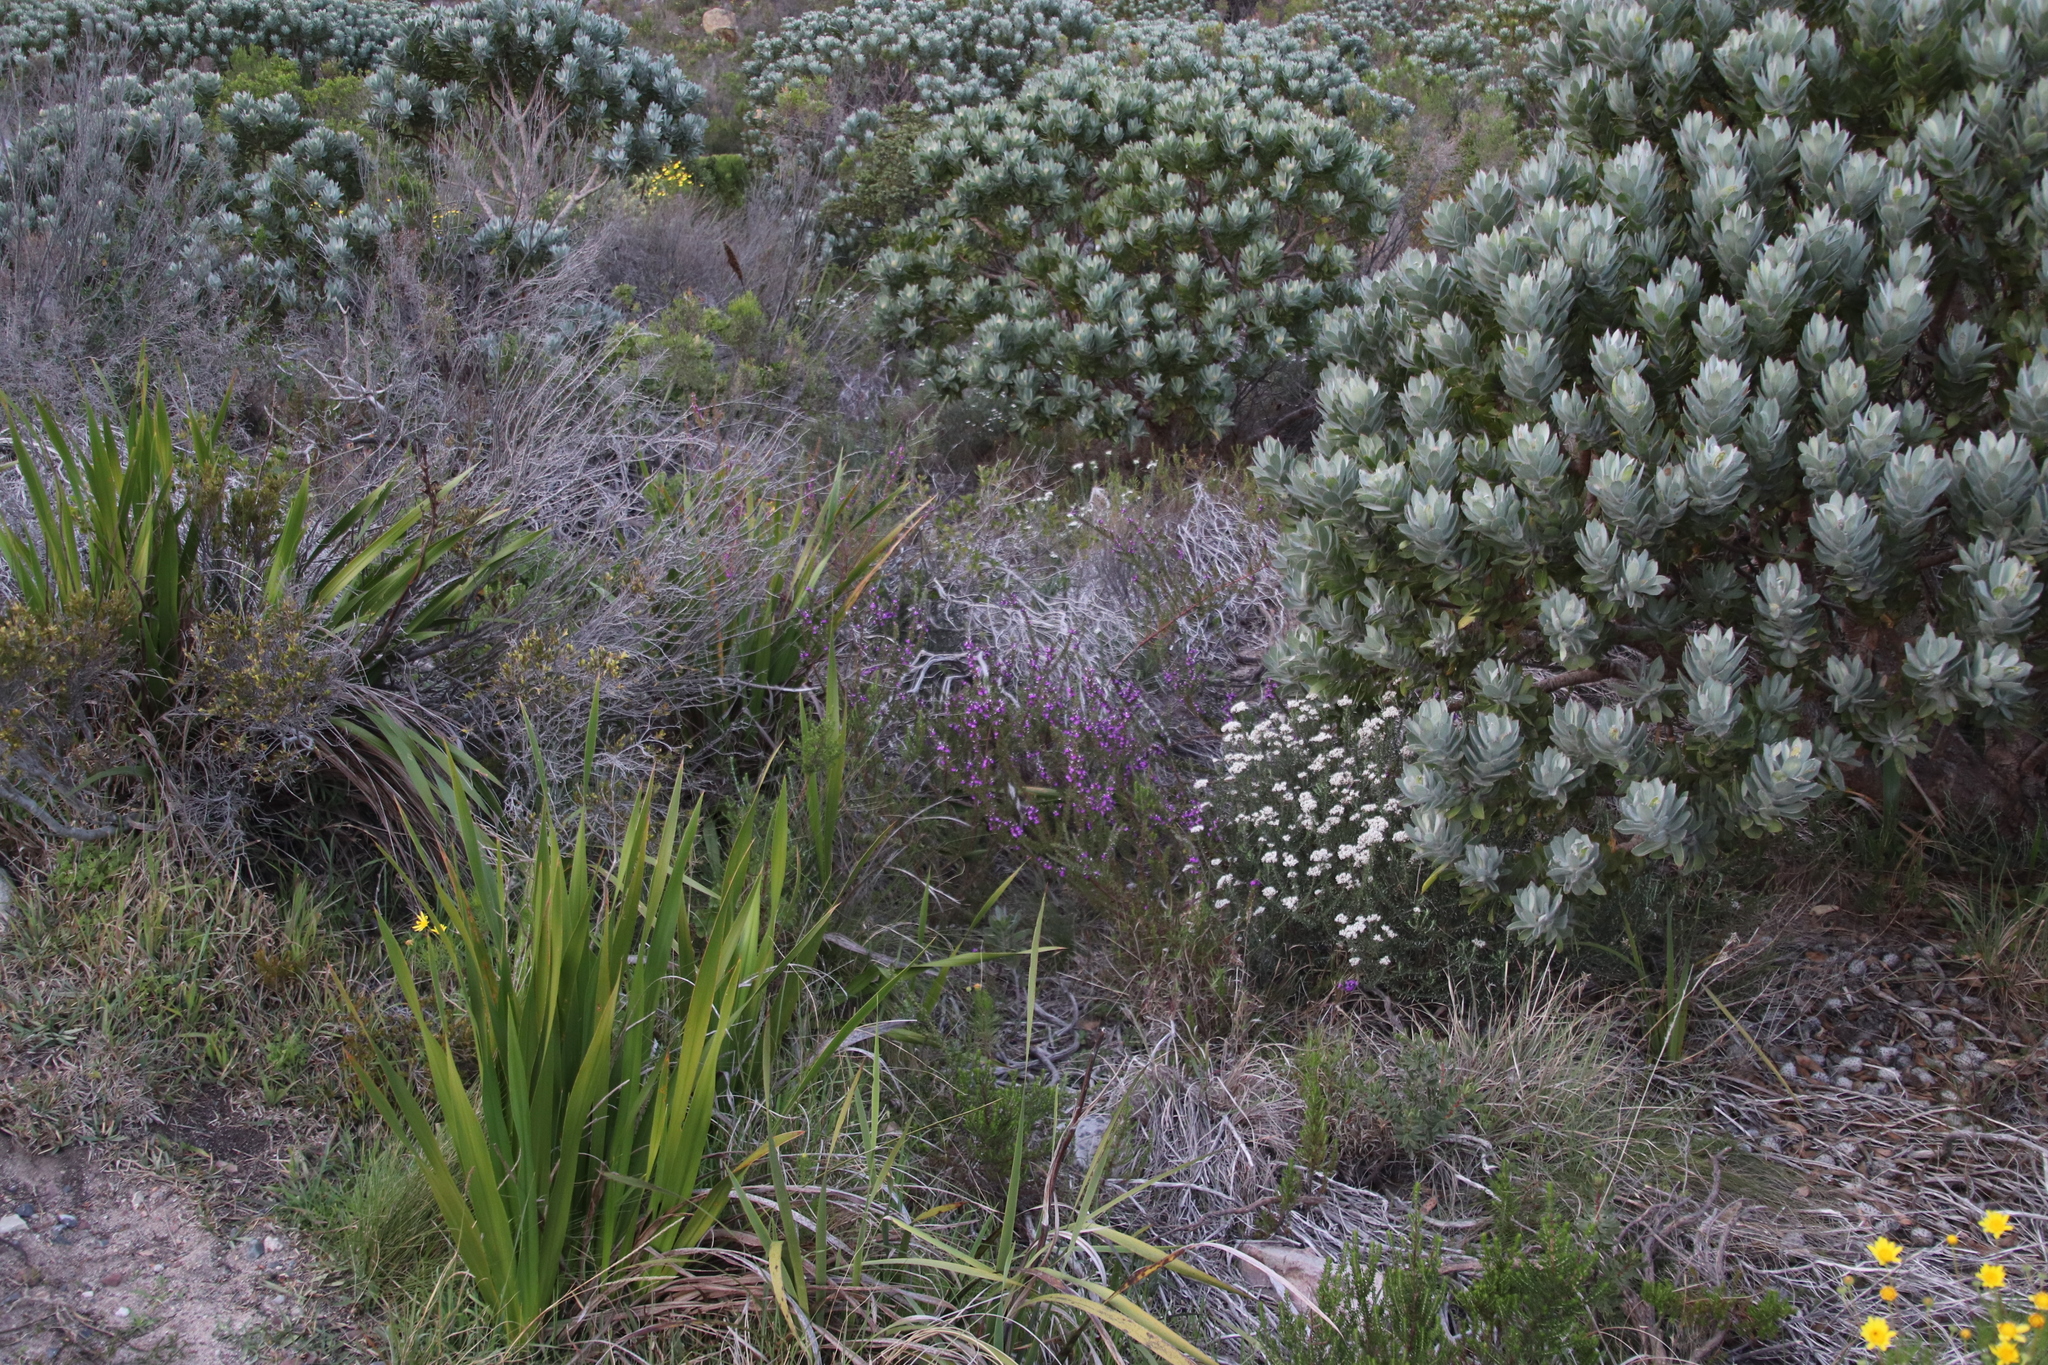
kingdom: Plantae
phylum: Tracheophyta
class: Magnoliopsida
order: Fabales
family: Polygalaceae
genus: Muraltia
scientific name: Muraltia heisteria
